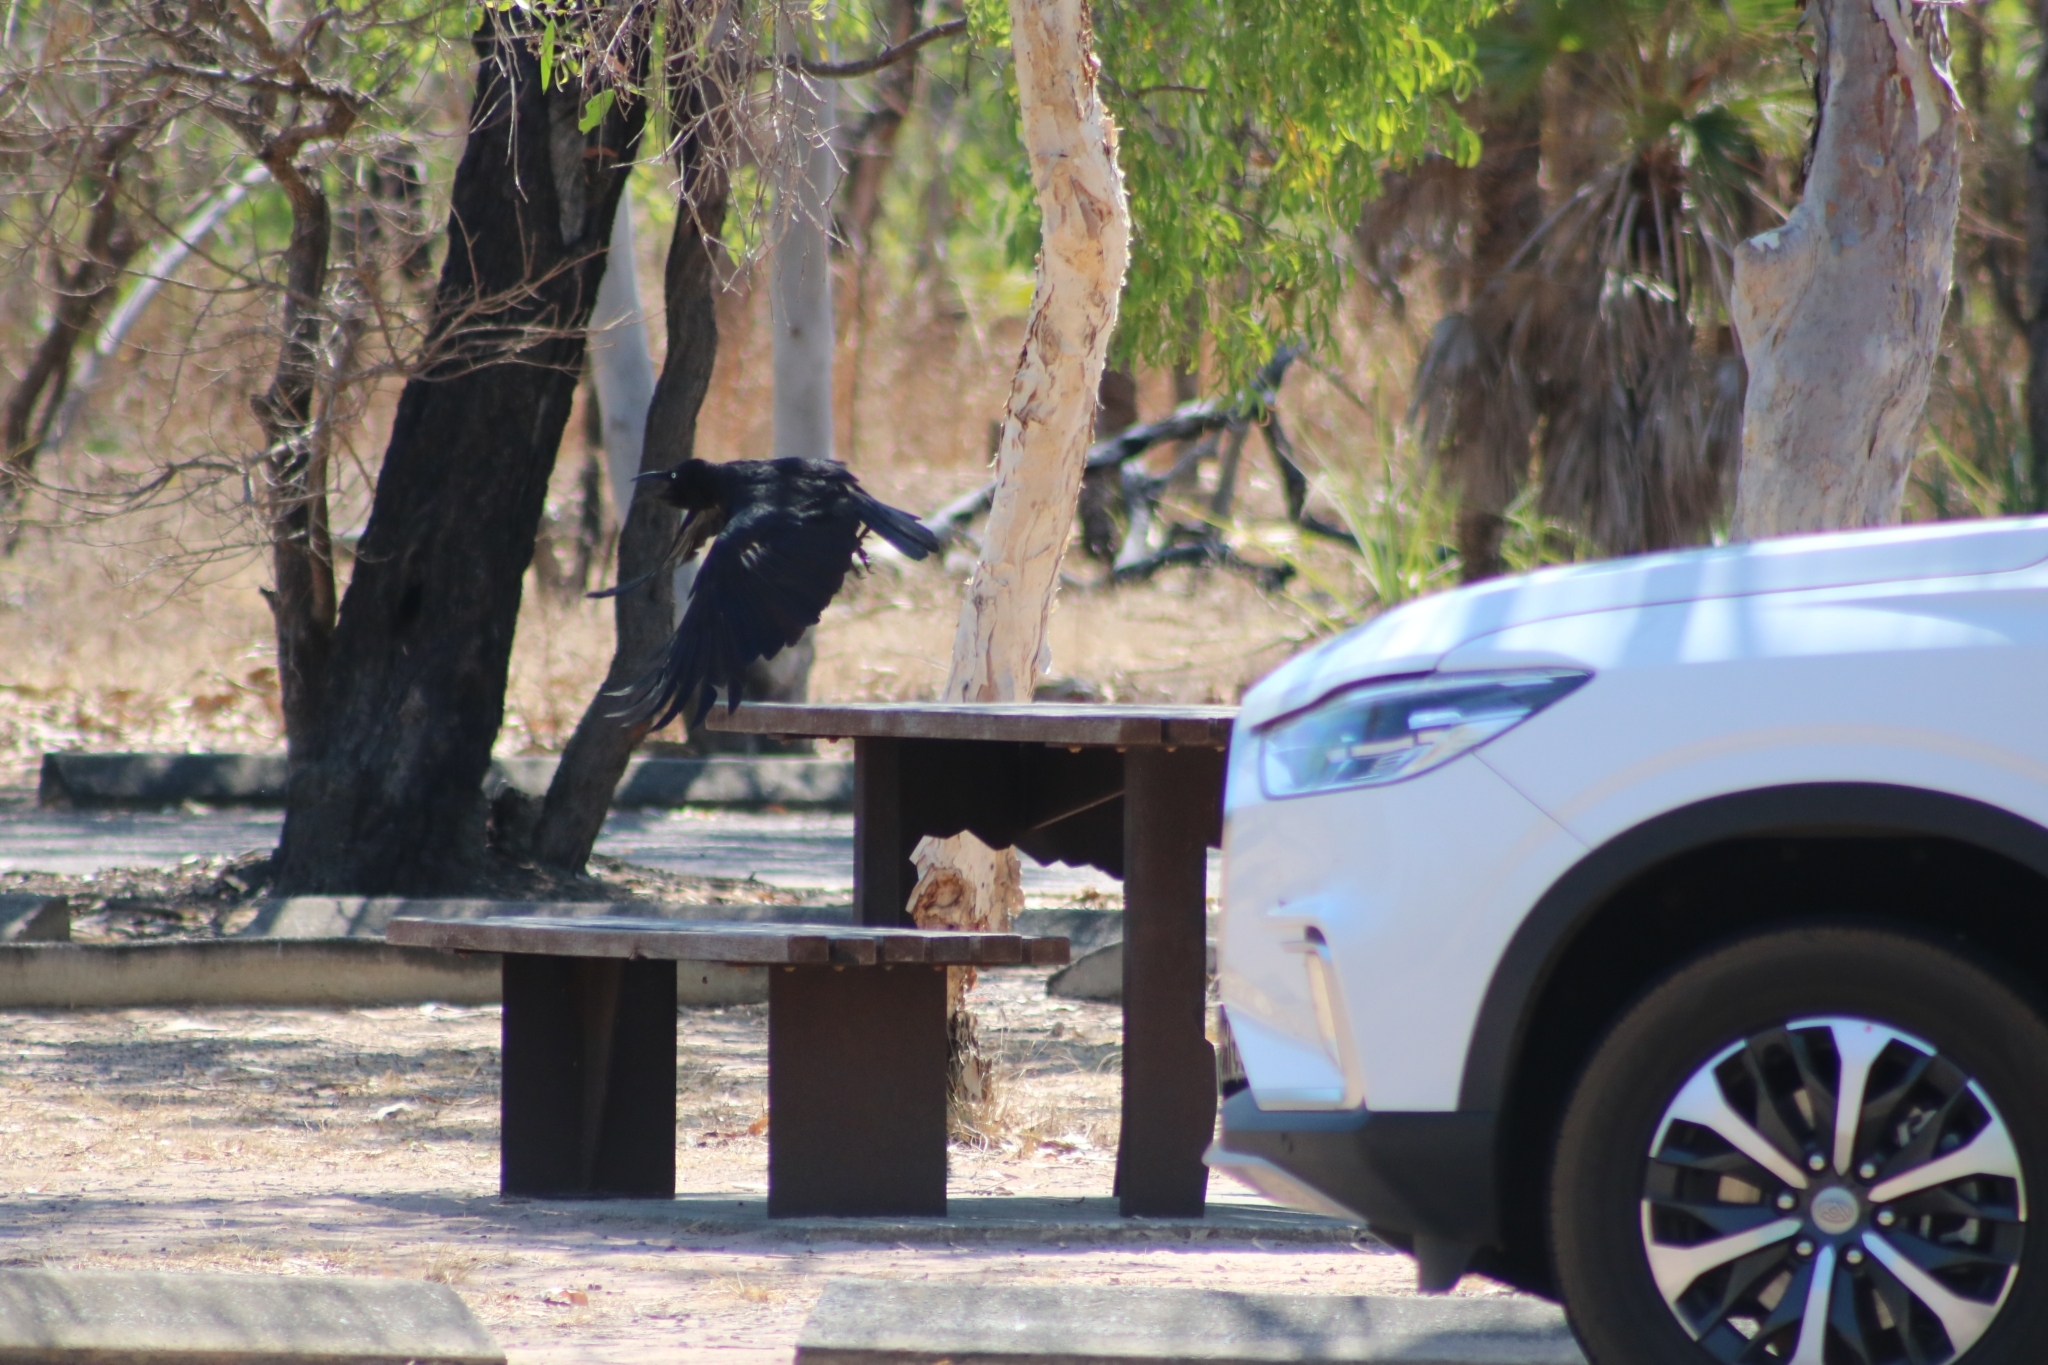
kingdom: Animalia
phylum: Chordata
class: Aves
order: Passeriformes
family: Corvidae
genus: Corvus
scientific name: Corvus orru
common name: Torresian crow
